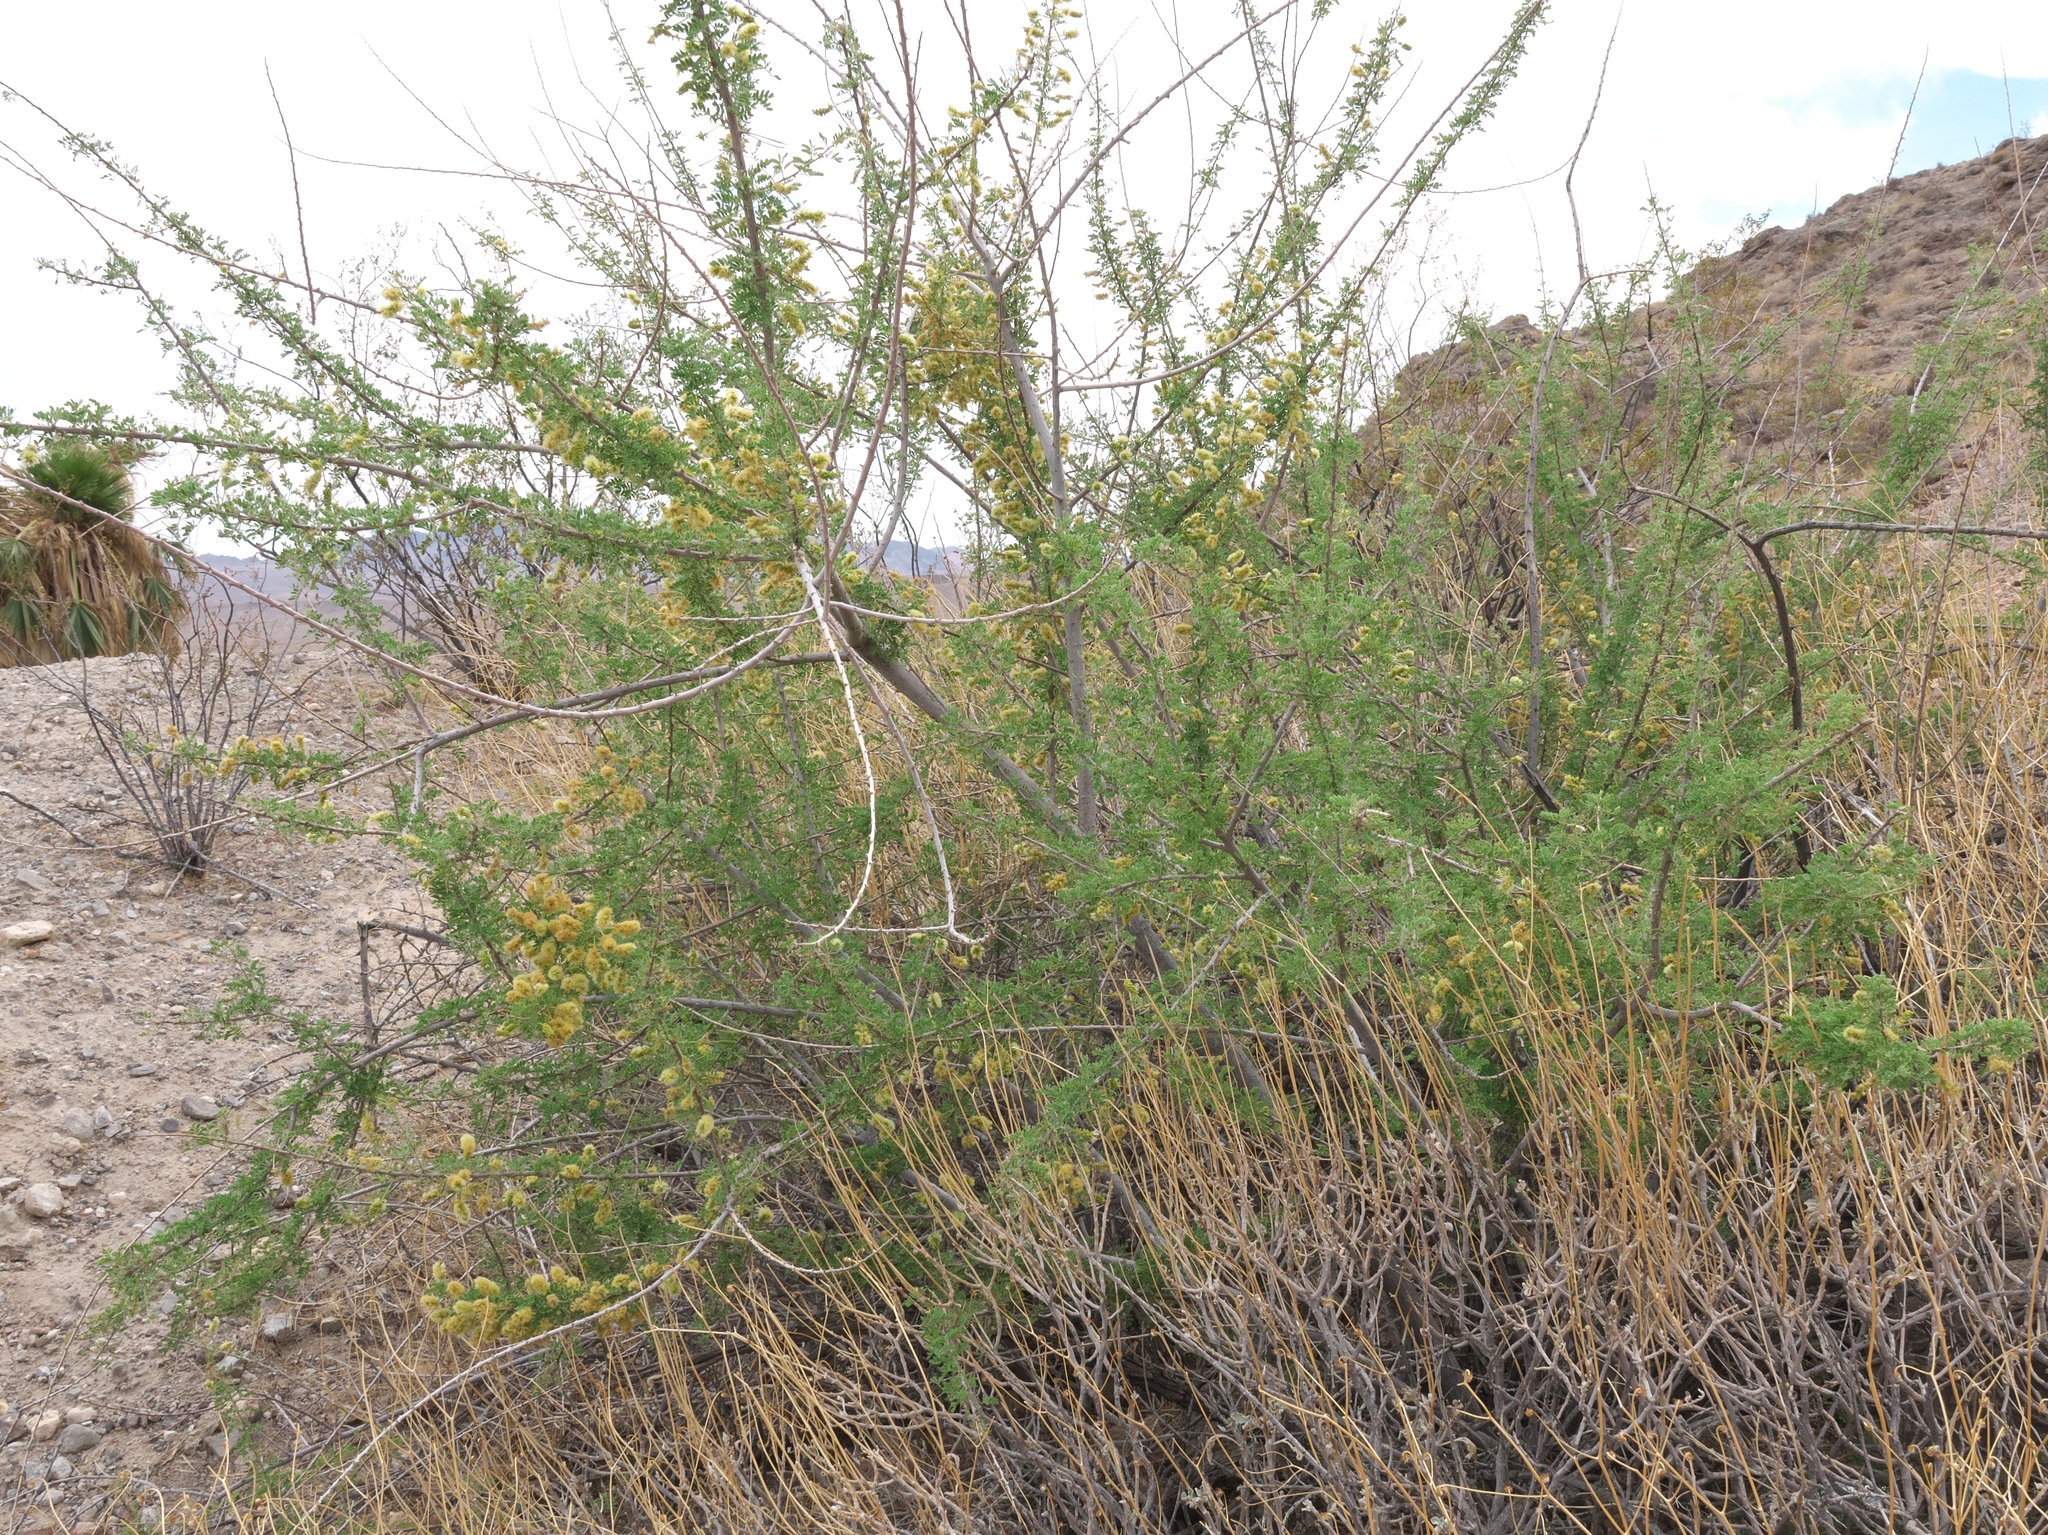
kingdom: Plantae
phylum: Tracheophyta
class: Magnoliopsida
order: Fabales
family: Fabaceae
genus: Senegalia
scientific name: Senegalia greggii
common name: Texas-mimosa
